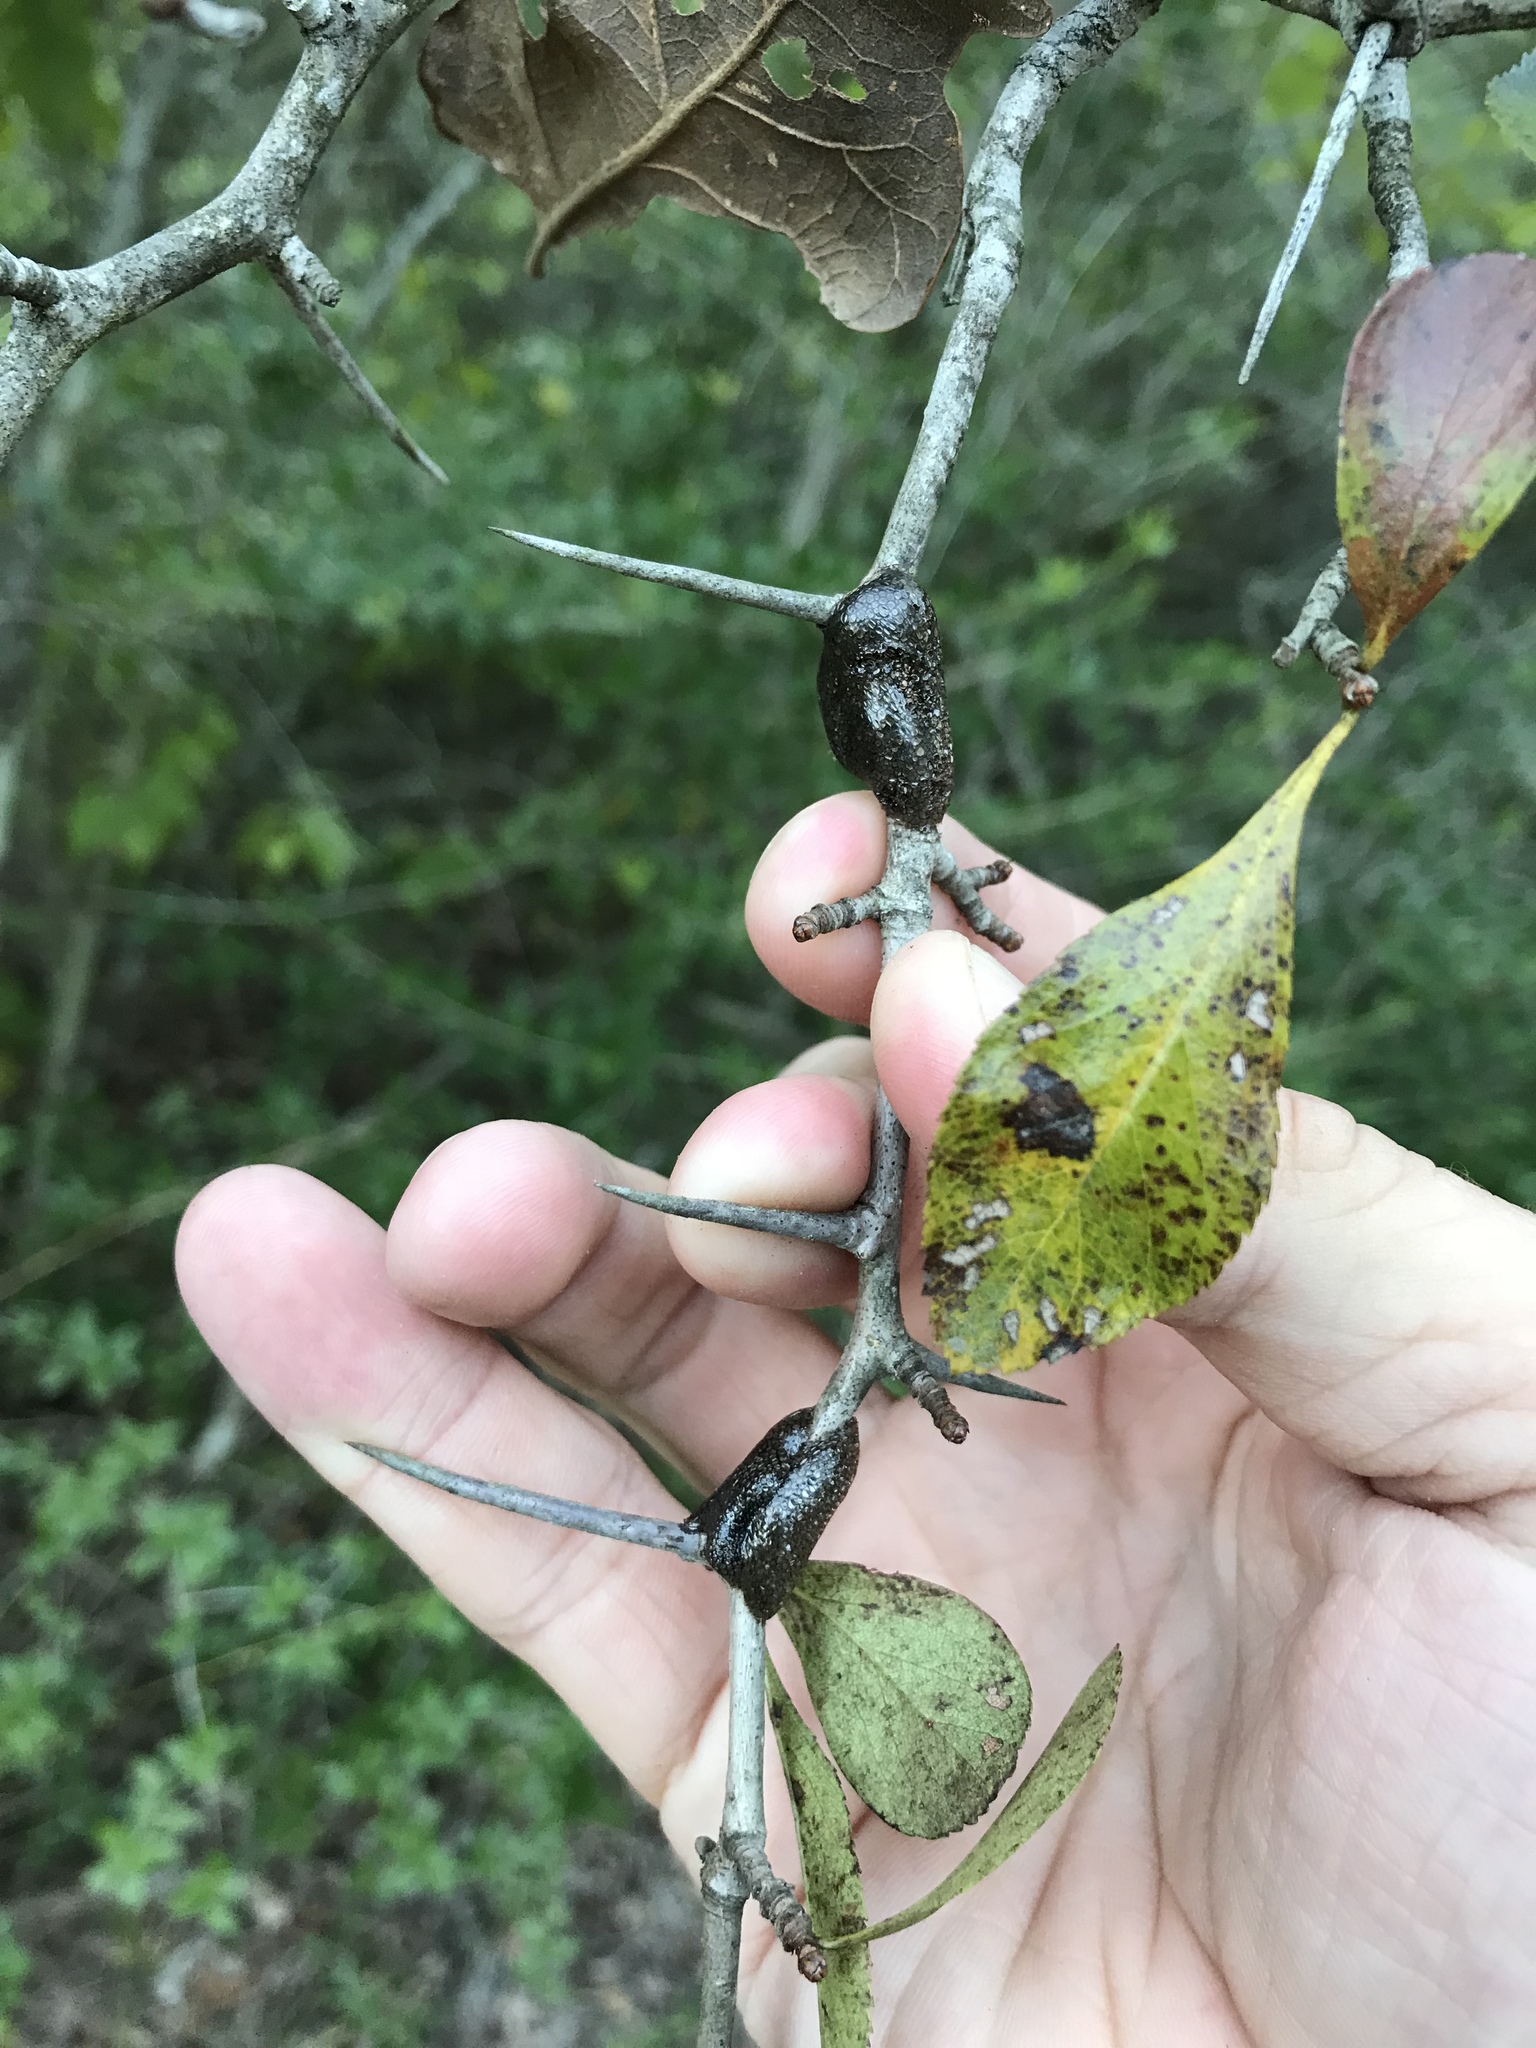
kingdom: Animalia
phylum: Arthropoda
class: Insecta
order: Lepidoptera
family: Lasiocampidae
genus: Malacosoma
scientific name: Malacosoma americana
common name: Eastern tent caterpillar moth
